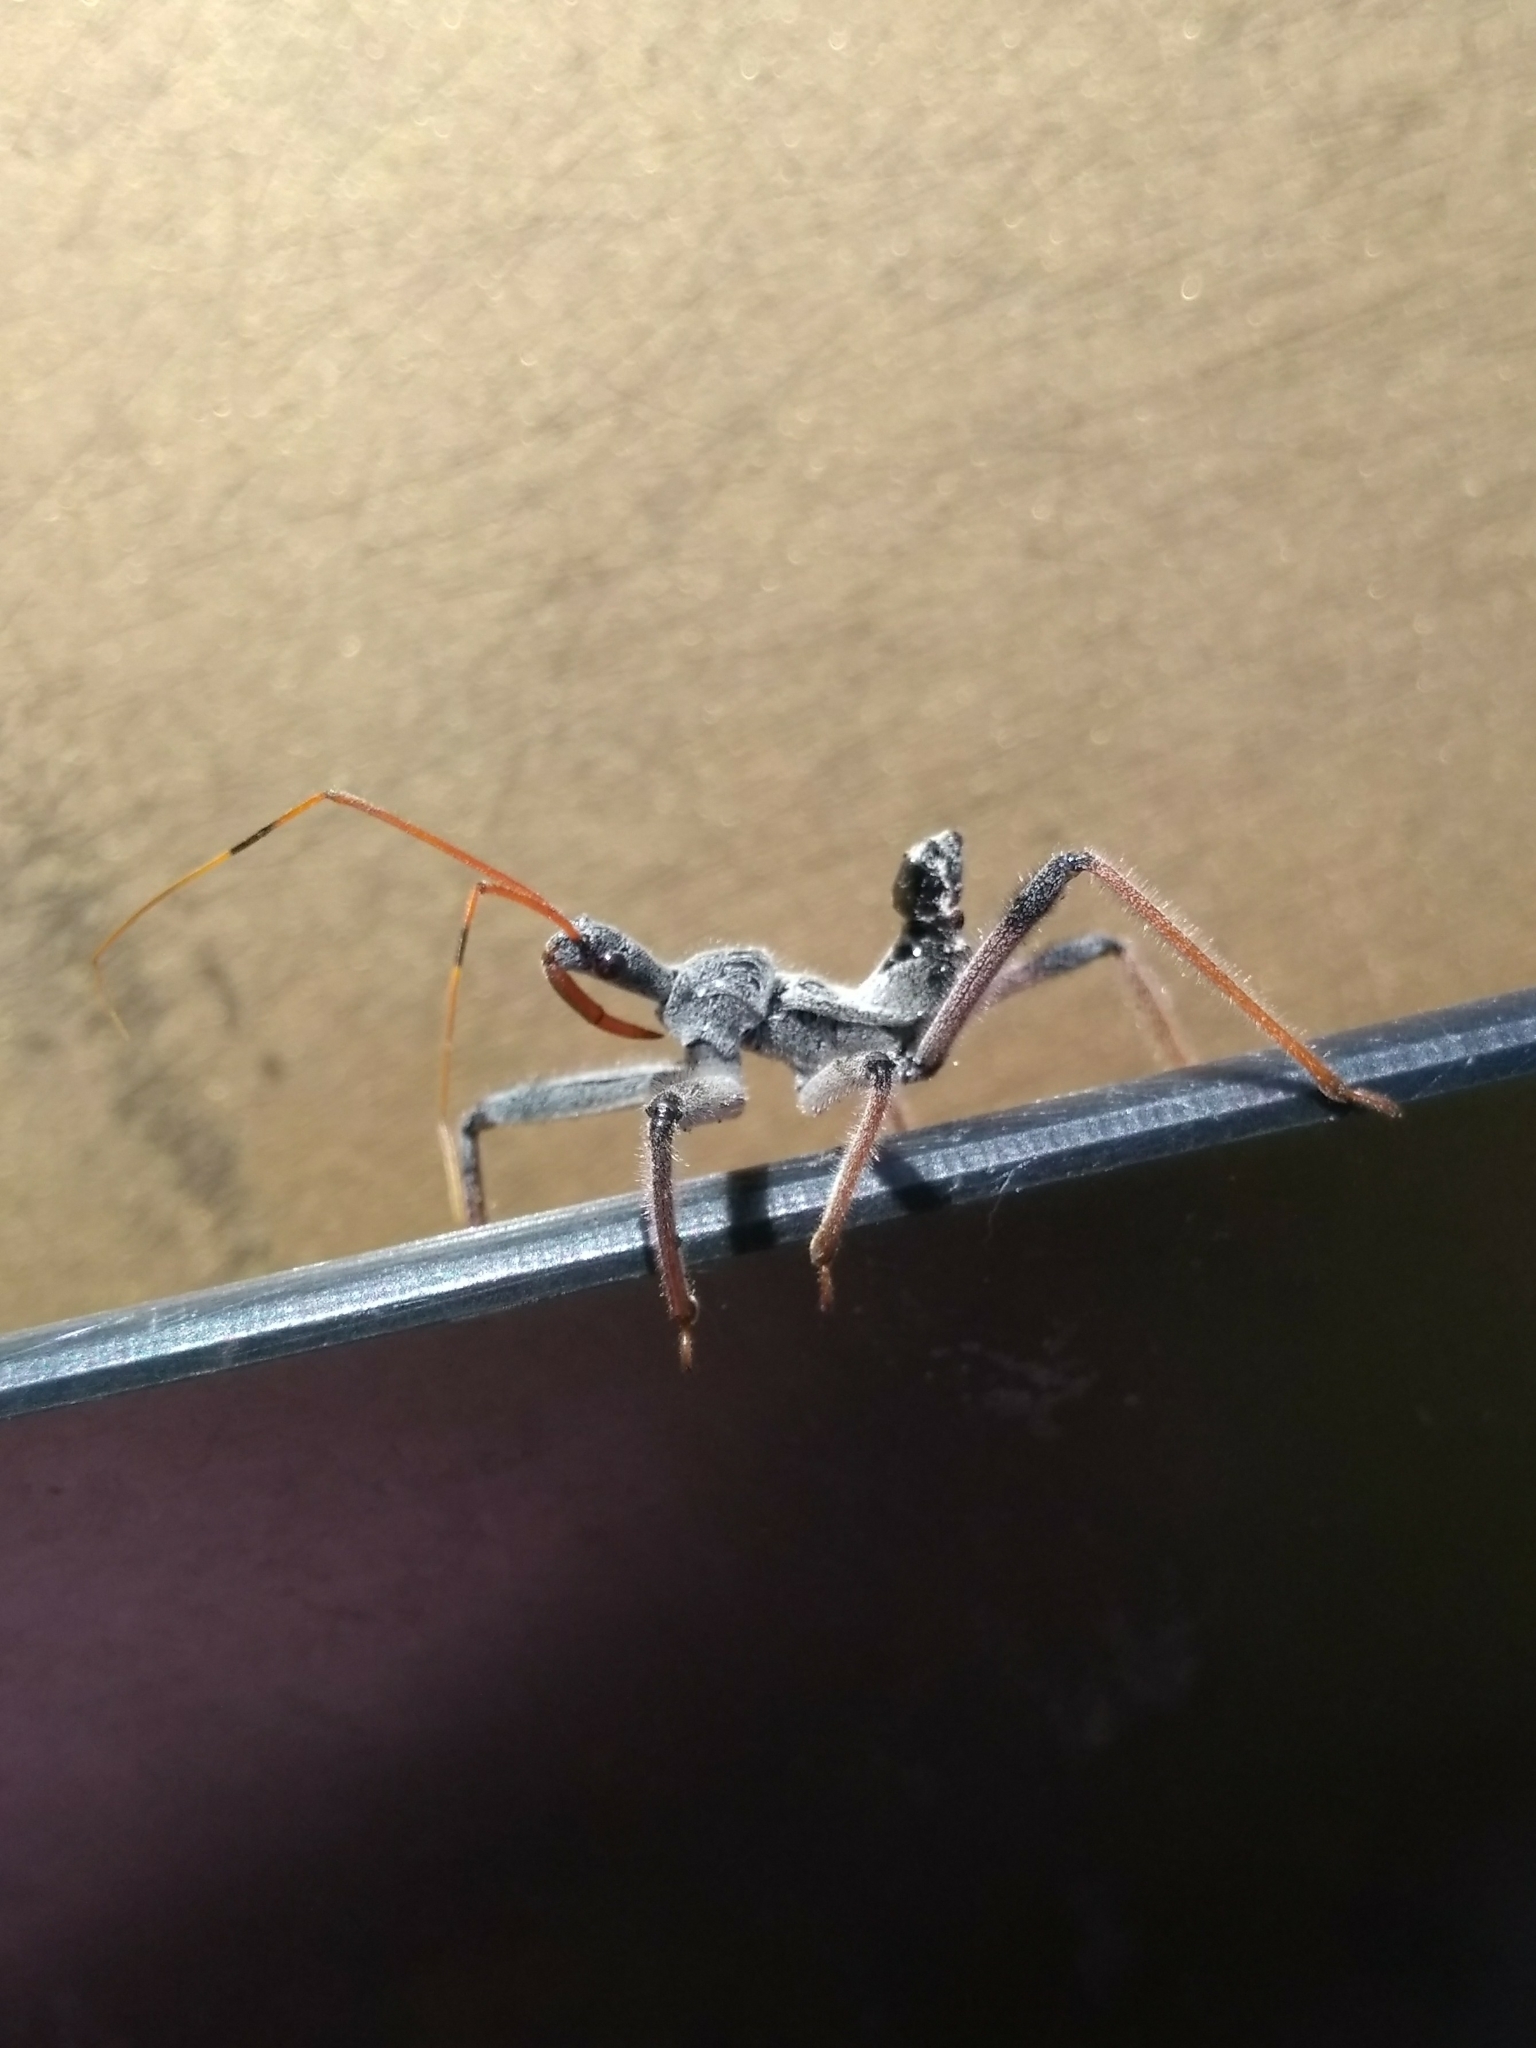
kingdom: Animalia
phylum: Arthropoda
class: Insecta
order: Hemiptera
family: Reduviidae
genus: Arilus
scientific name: Arilus cristatus
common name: North american wheel bug
